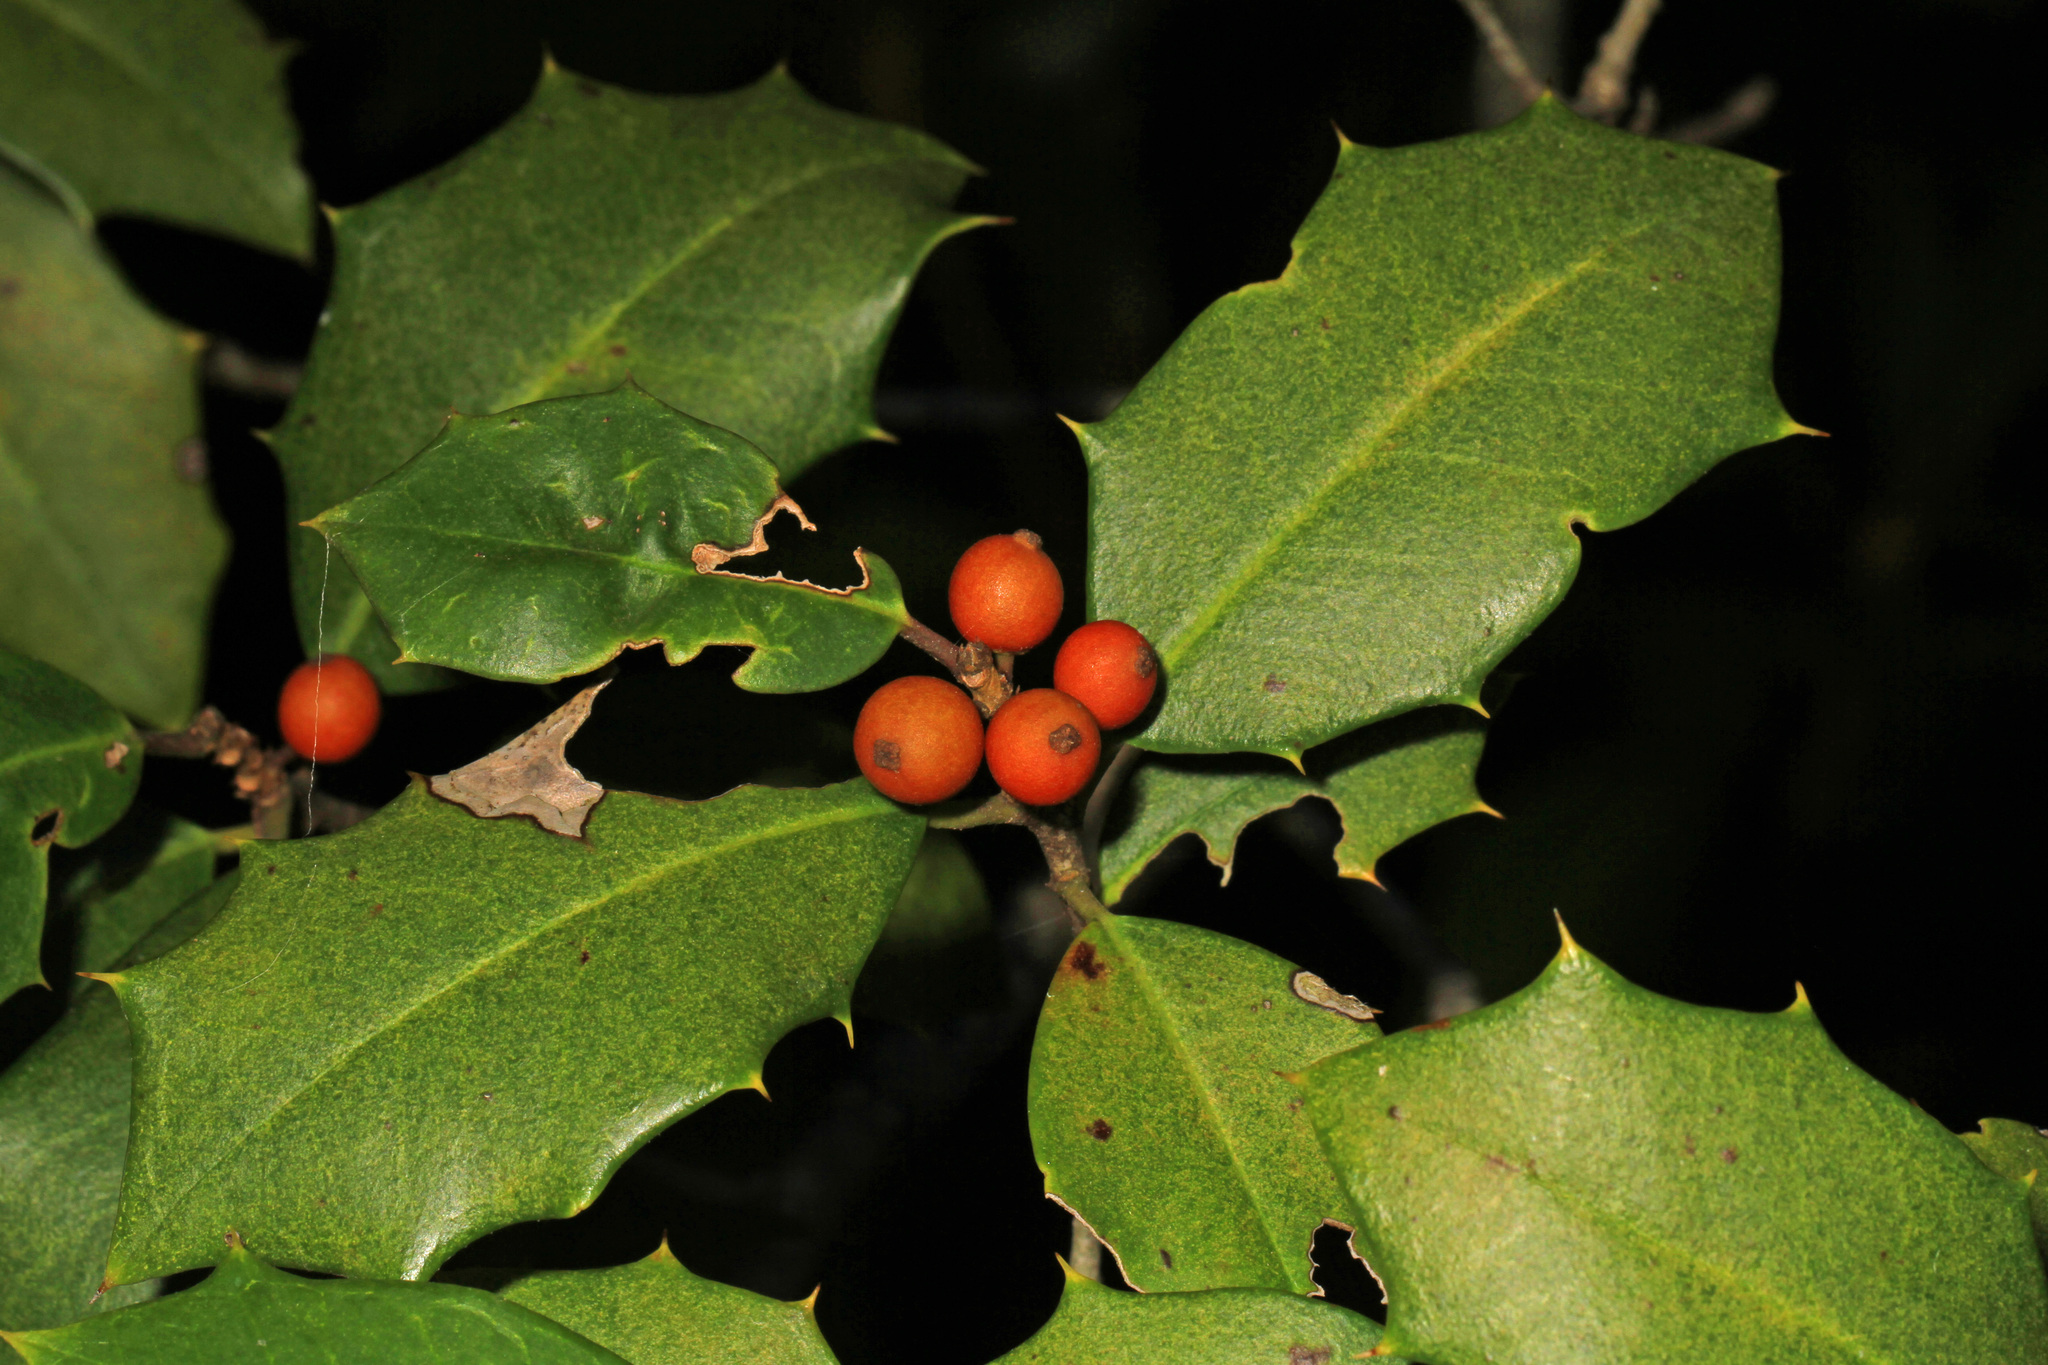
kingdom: Plantae
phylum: Tracheophyta
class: Magnoliopsida
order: Aquifoliales
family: Aquifoliaceae
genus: Ilex
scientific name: Ilex opaca
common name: American holly
